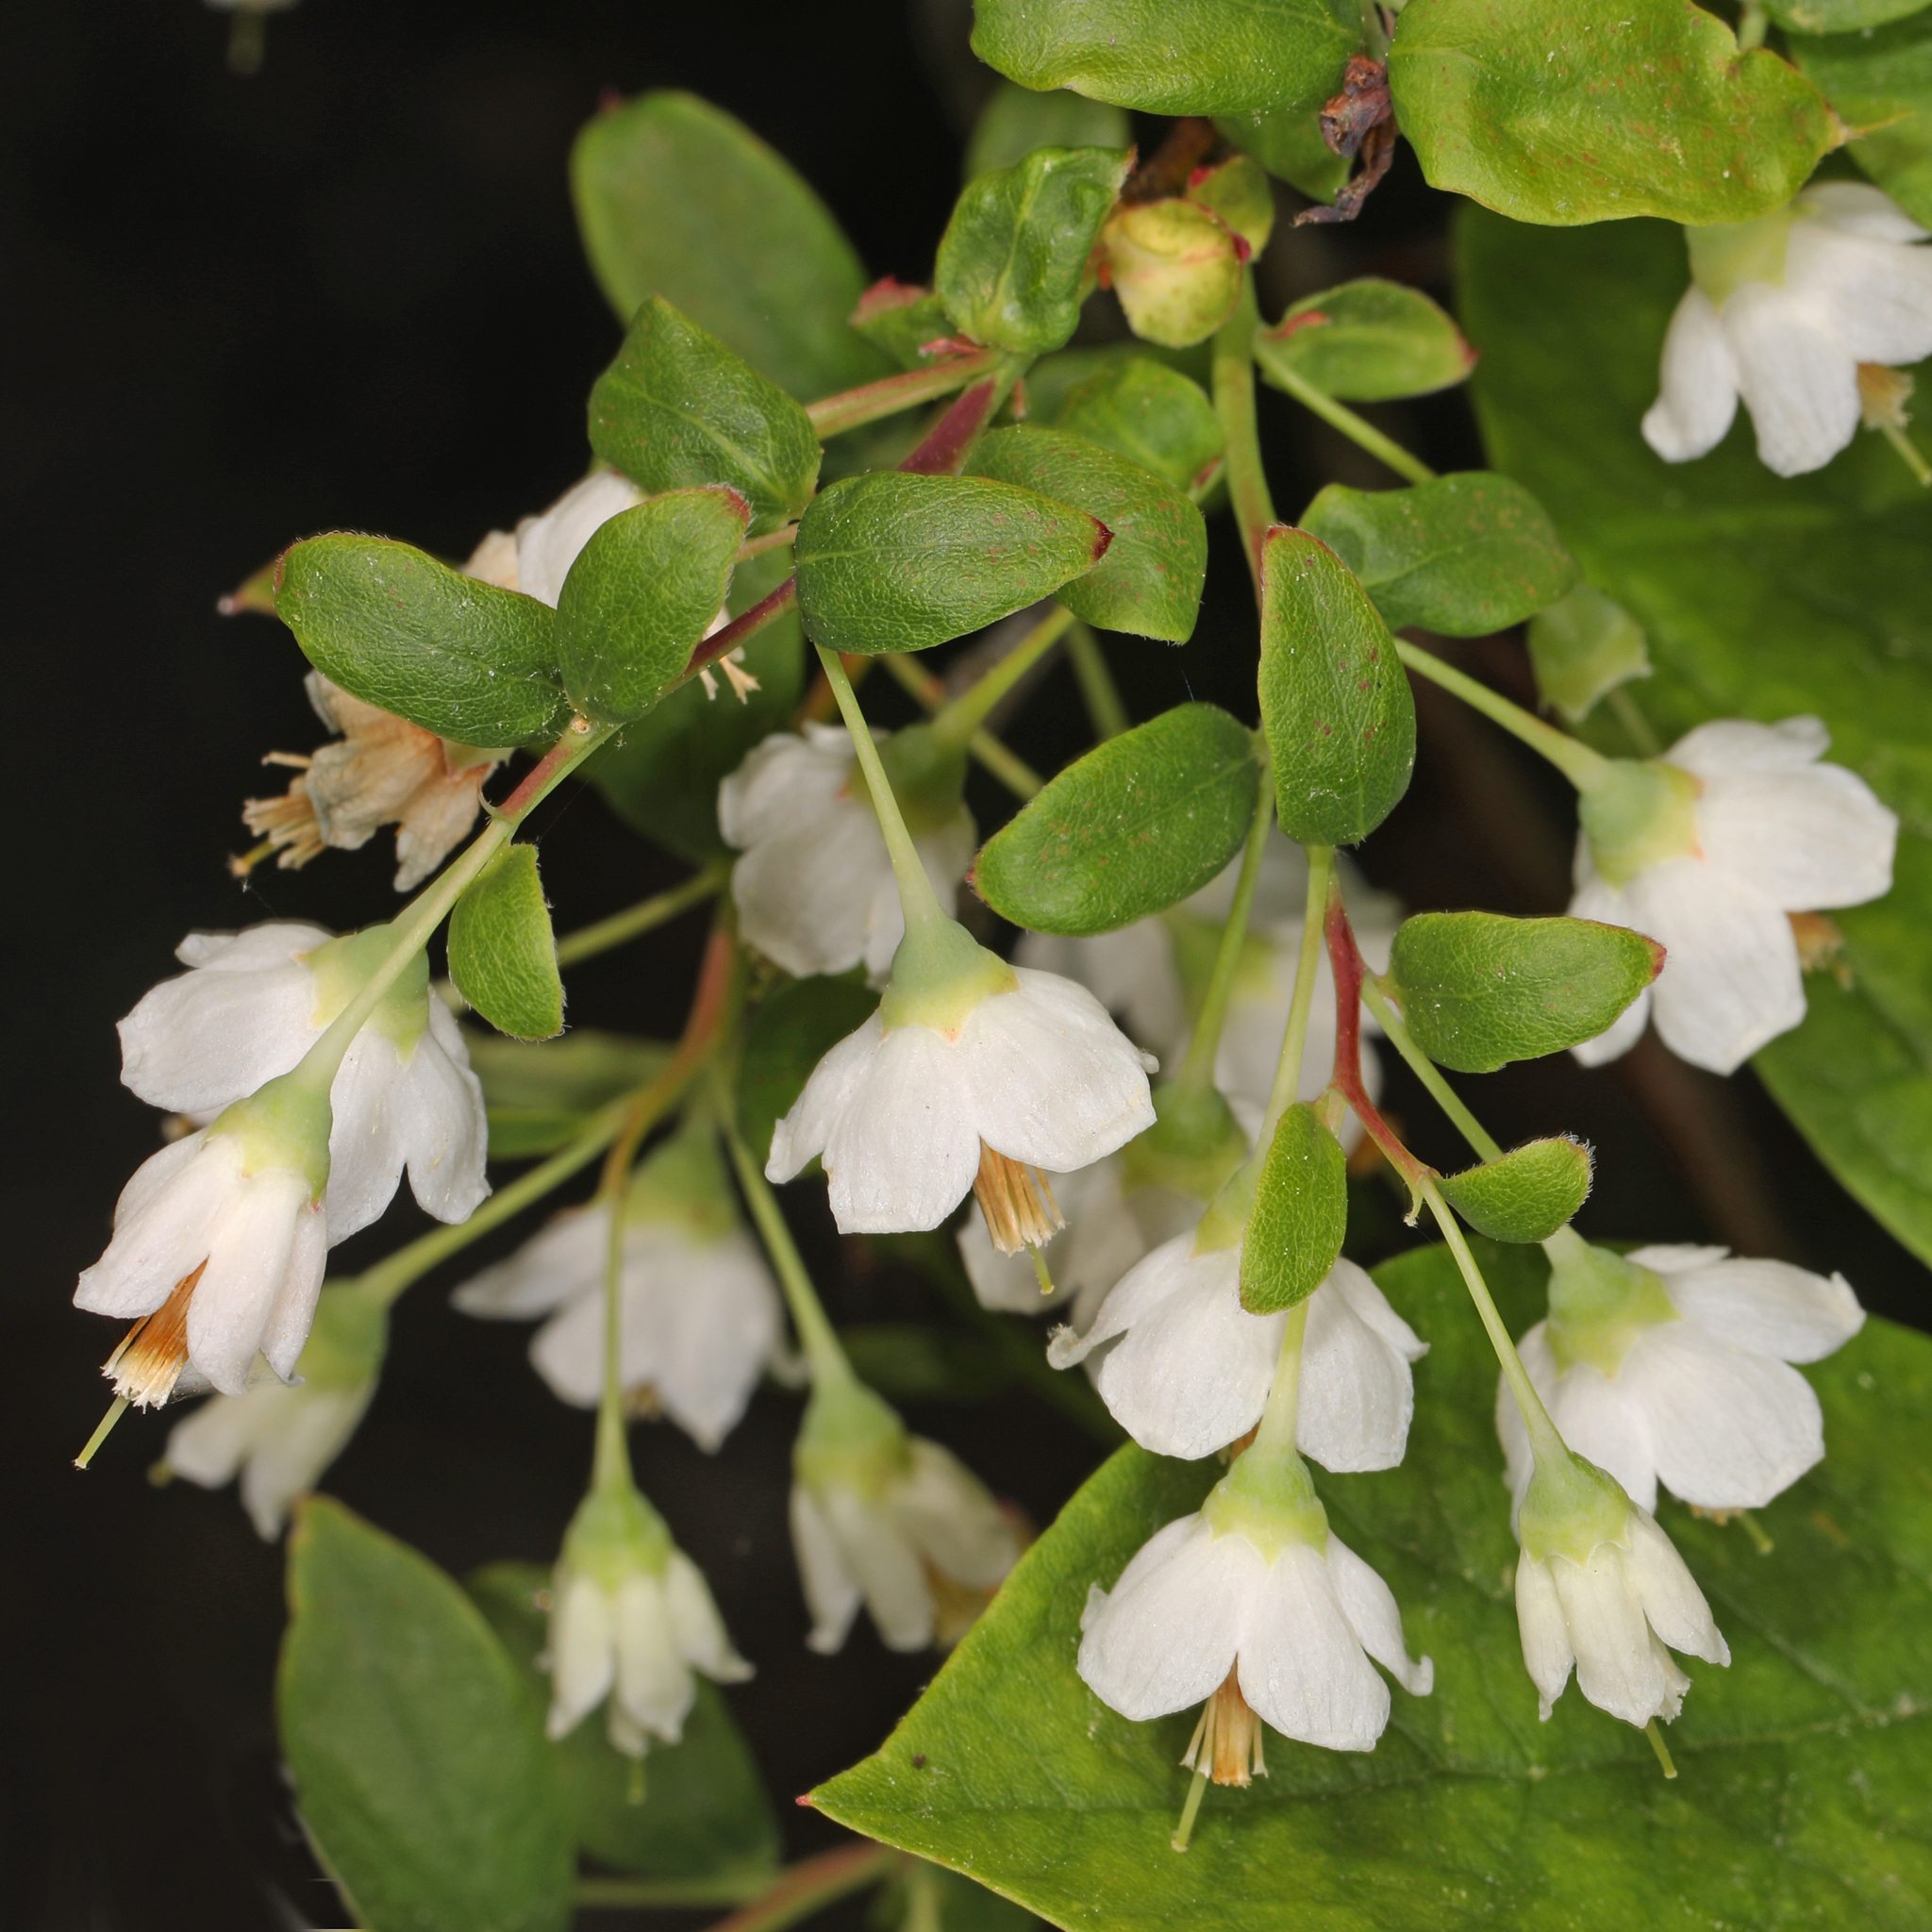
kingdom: Plantae
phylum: Tracheophyta
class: Magnoliopsida
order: Ericales
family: Ericaceae
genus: Vaccinium
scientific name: Vaccinium stamineum
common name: Deerberry
